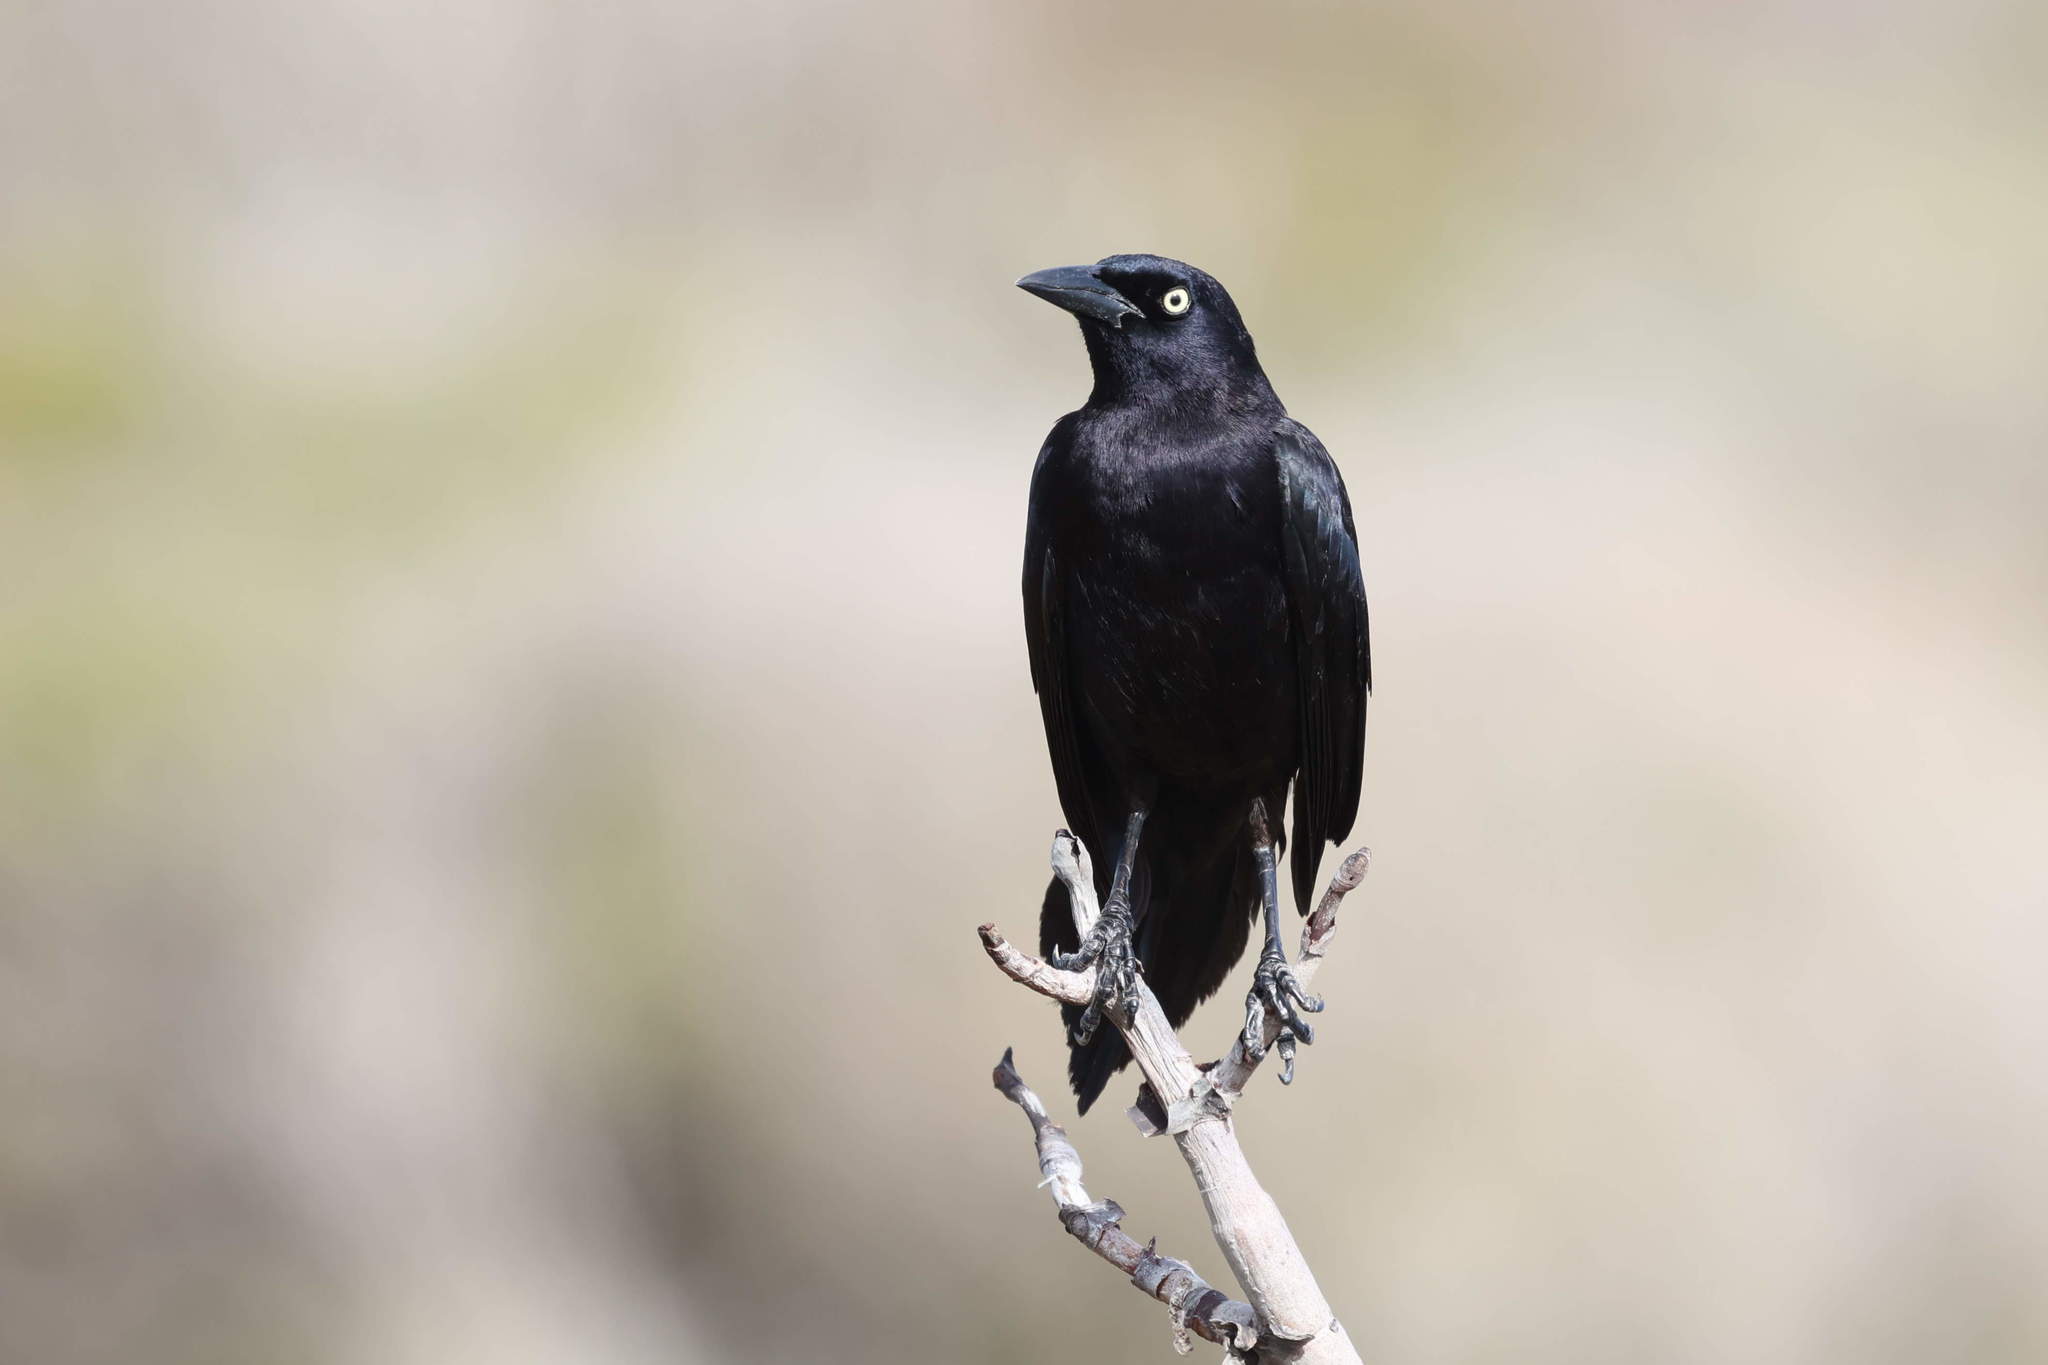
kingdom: Animalia
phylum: Chordata
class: Aves
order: Passeriformes
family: Icteridae
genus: Quiscalus
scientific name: Quiscalus lugubris
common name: Carib grackle
